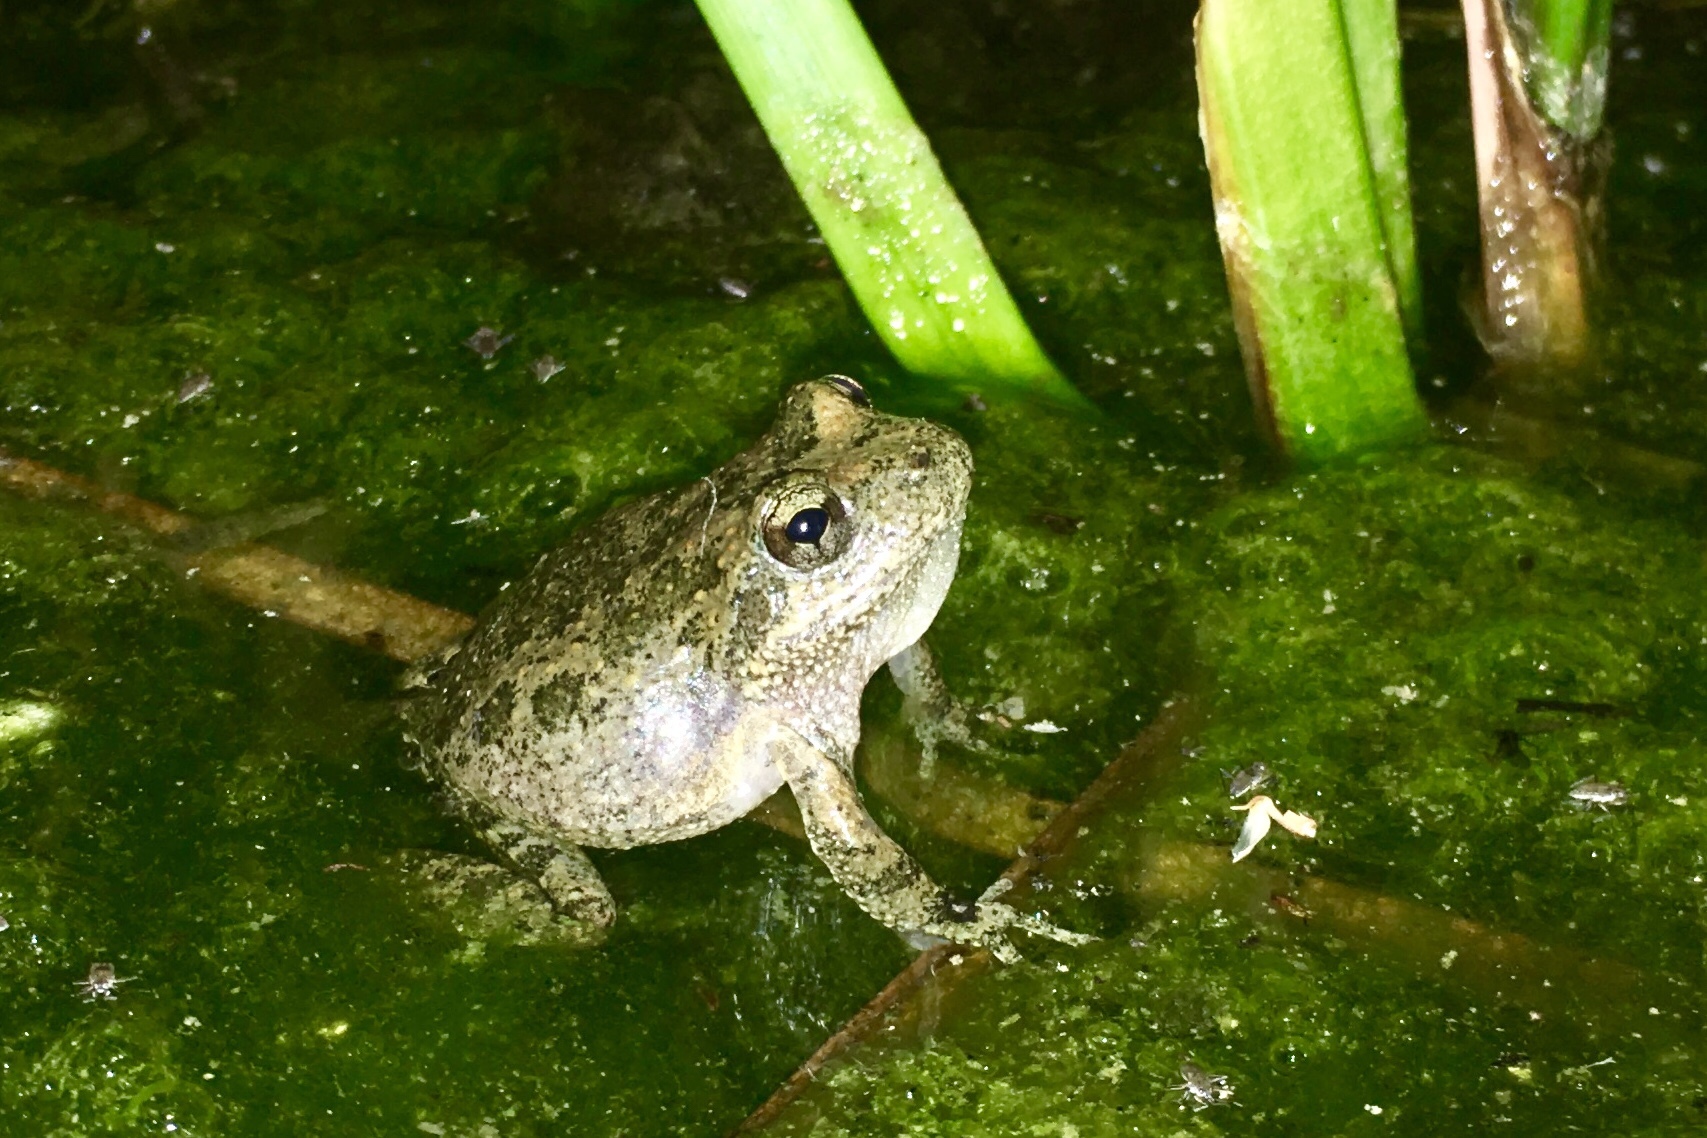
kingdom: Animalia
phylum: Chordata
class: Amphibia
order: Anura
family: Hylidae
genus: Pseudacris
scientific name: Pseudacris cadaverina
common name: California chorus frog
